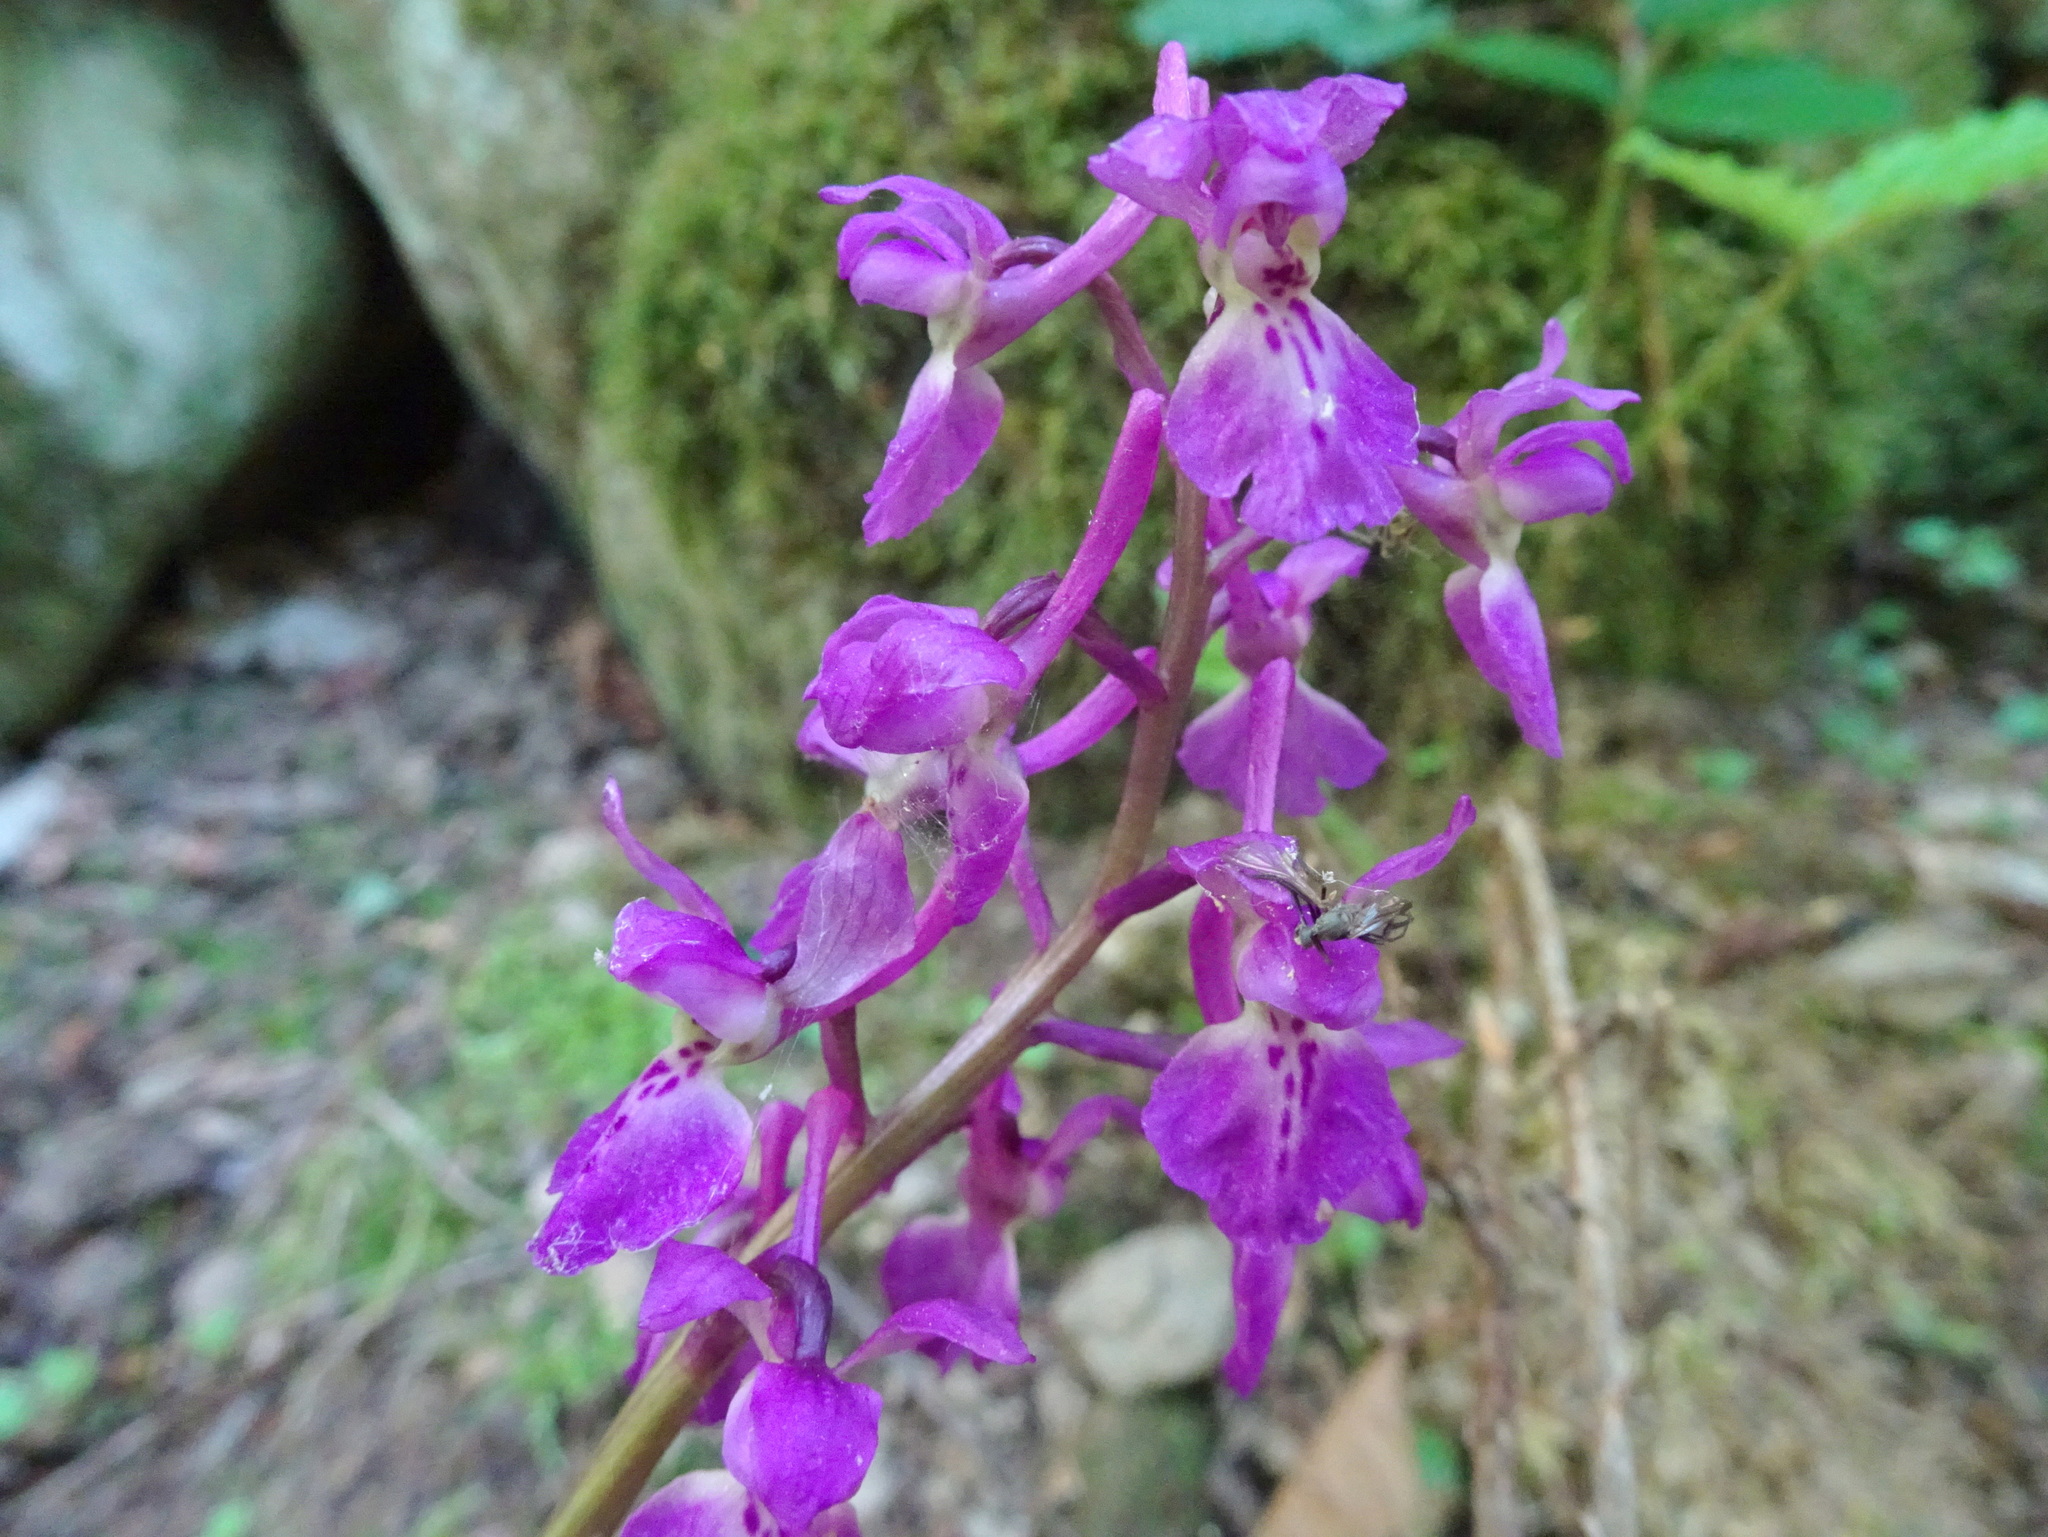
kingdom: Plantae
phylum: Tracheophyta
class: Liliopsida
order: Asparagales
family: Orchidaceae
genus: Orchis
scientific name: Orchis mascula
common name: Early-purple orchid
